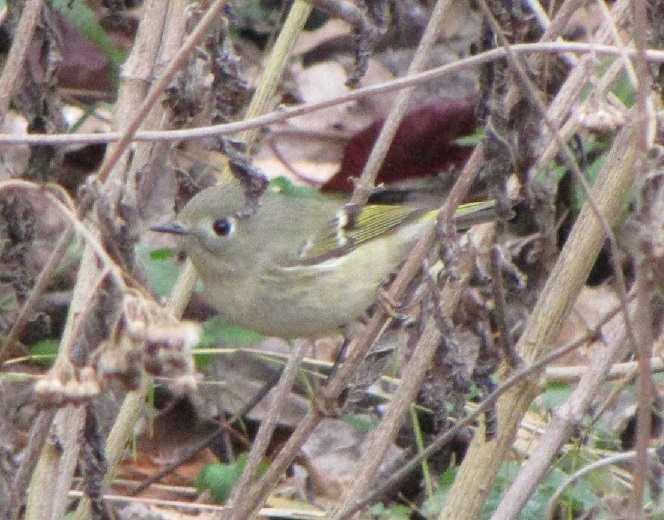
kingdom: Animalia
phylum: Chordata
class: Aves
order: Passeriformes
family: Regulidae
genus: Regulus
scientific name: Regulus calendula
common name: Ruby-crowned kinglet
